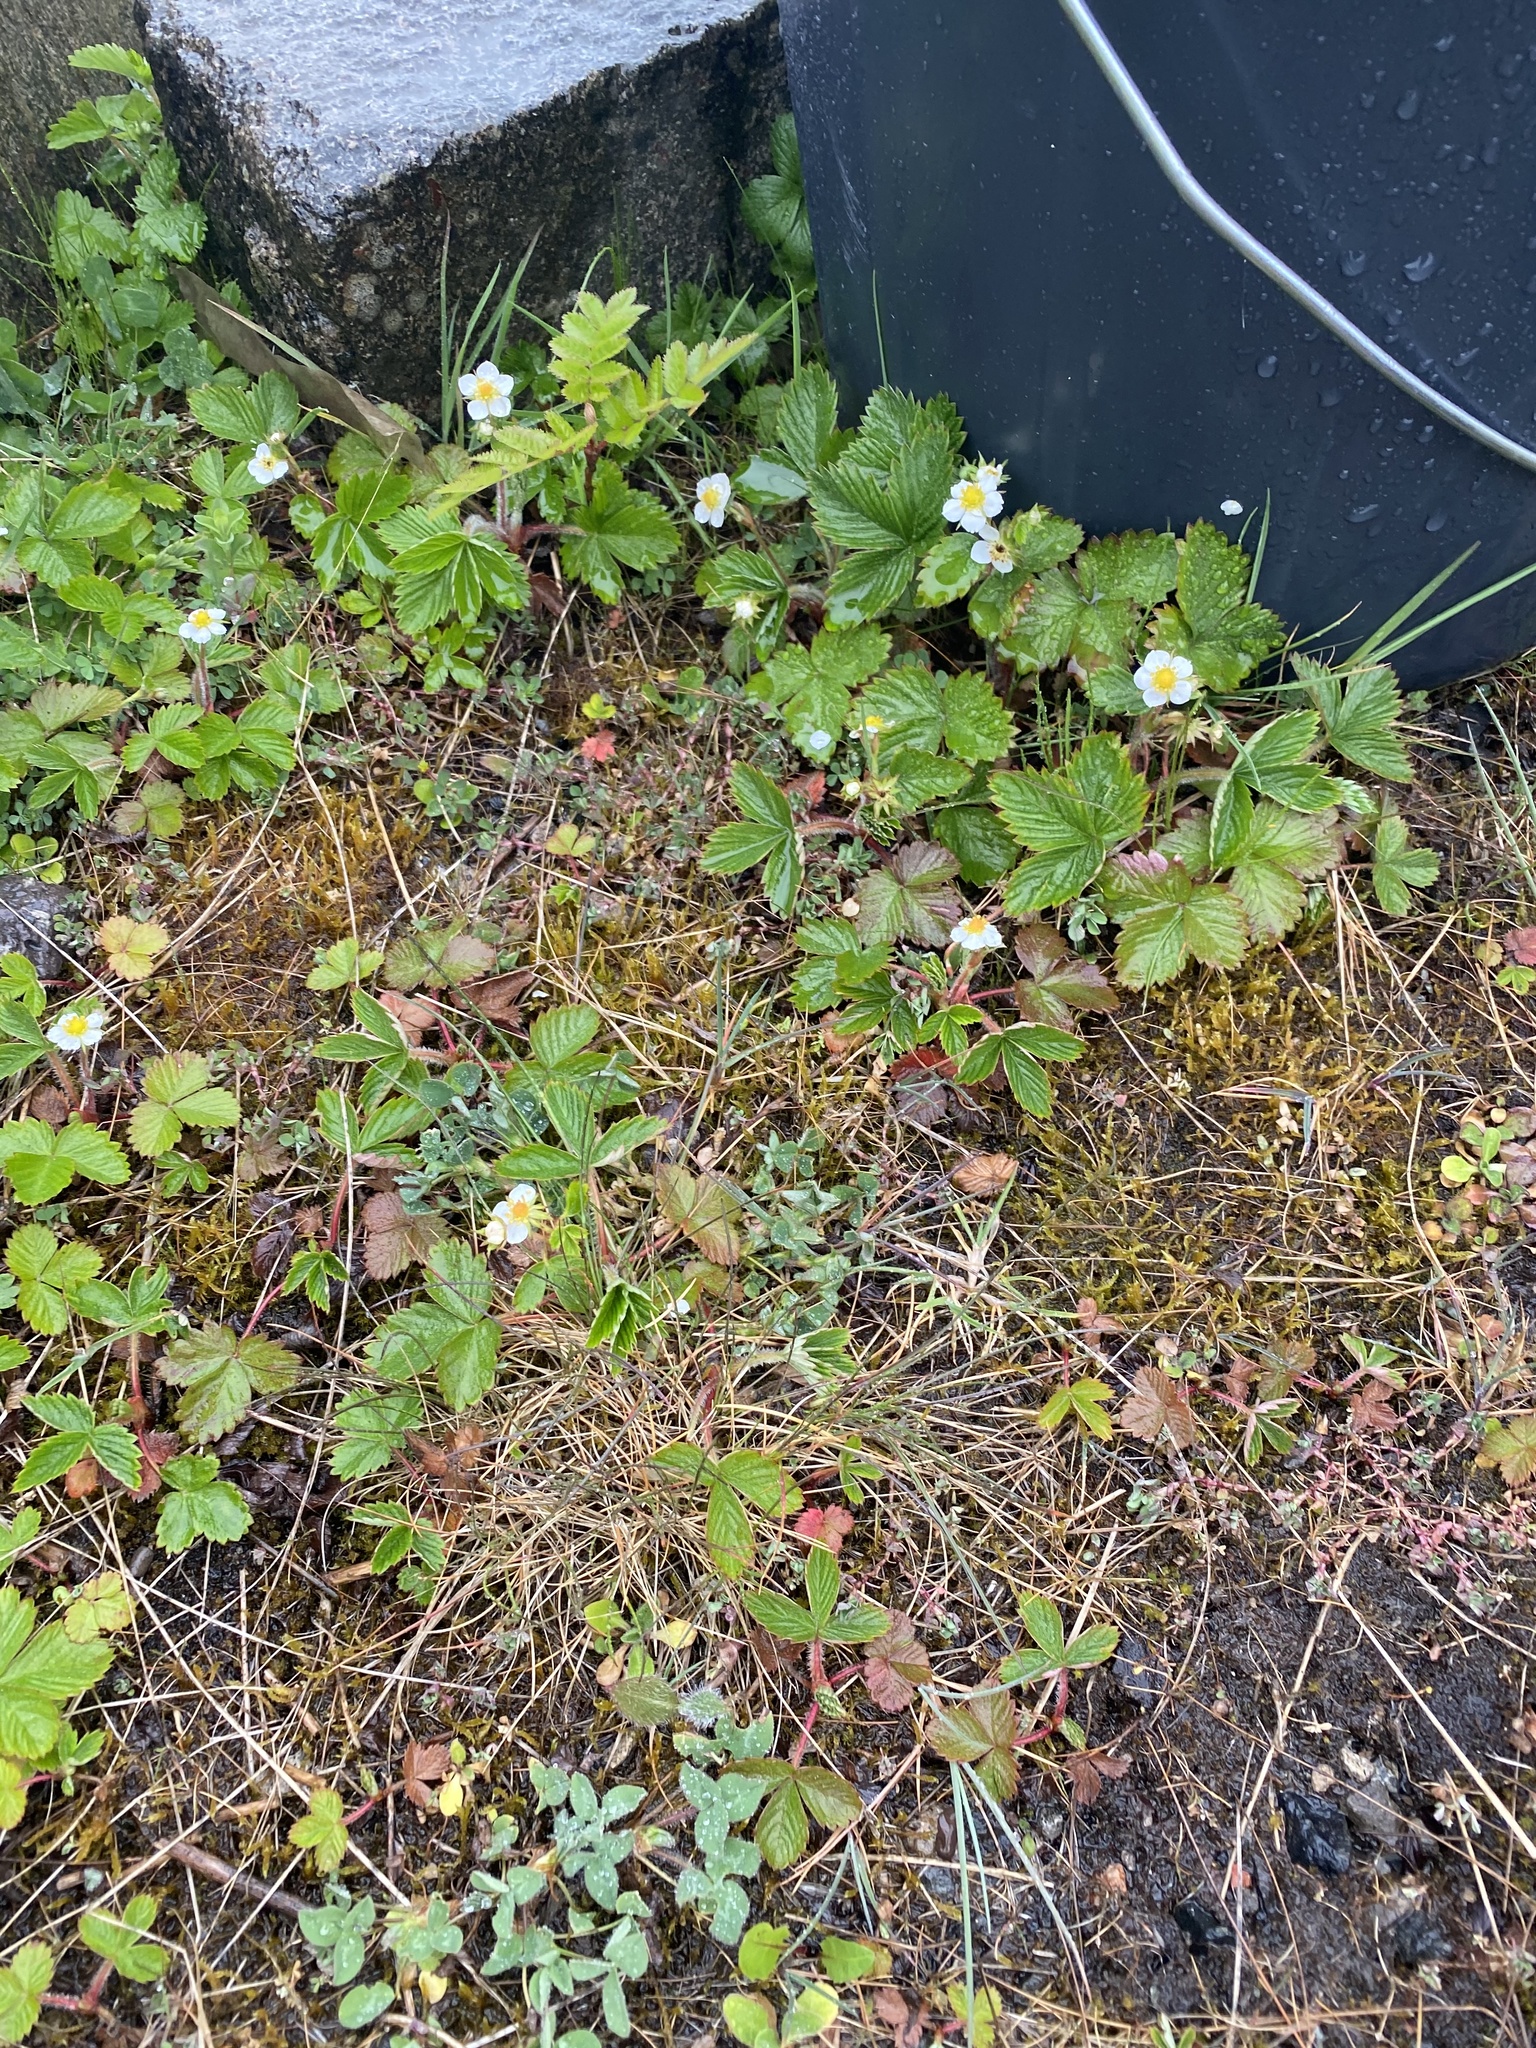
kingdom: Plantae
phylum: Tracheophyta
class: Magnoliopsida
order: Rosales
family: Rosaceae
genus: Fragaria
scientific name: Fragaria vesca
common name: Wild strawberry
